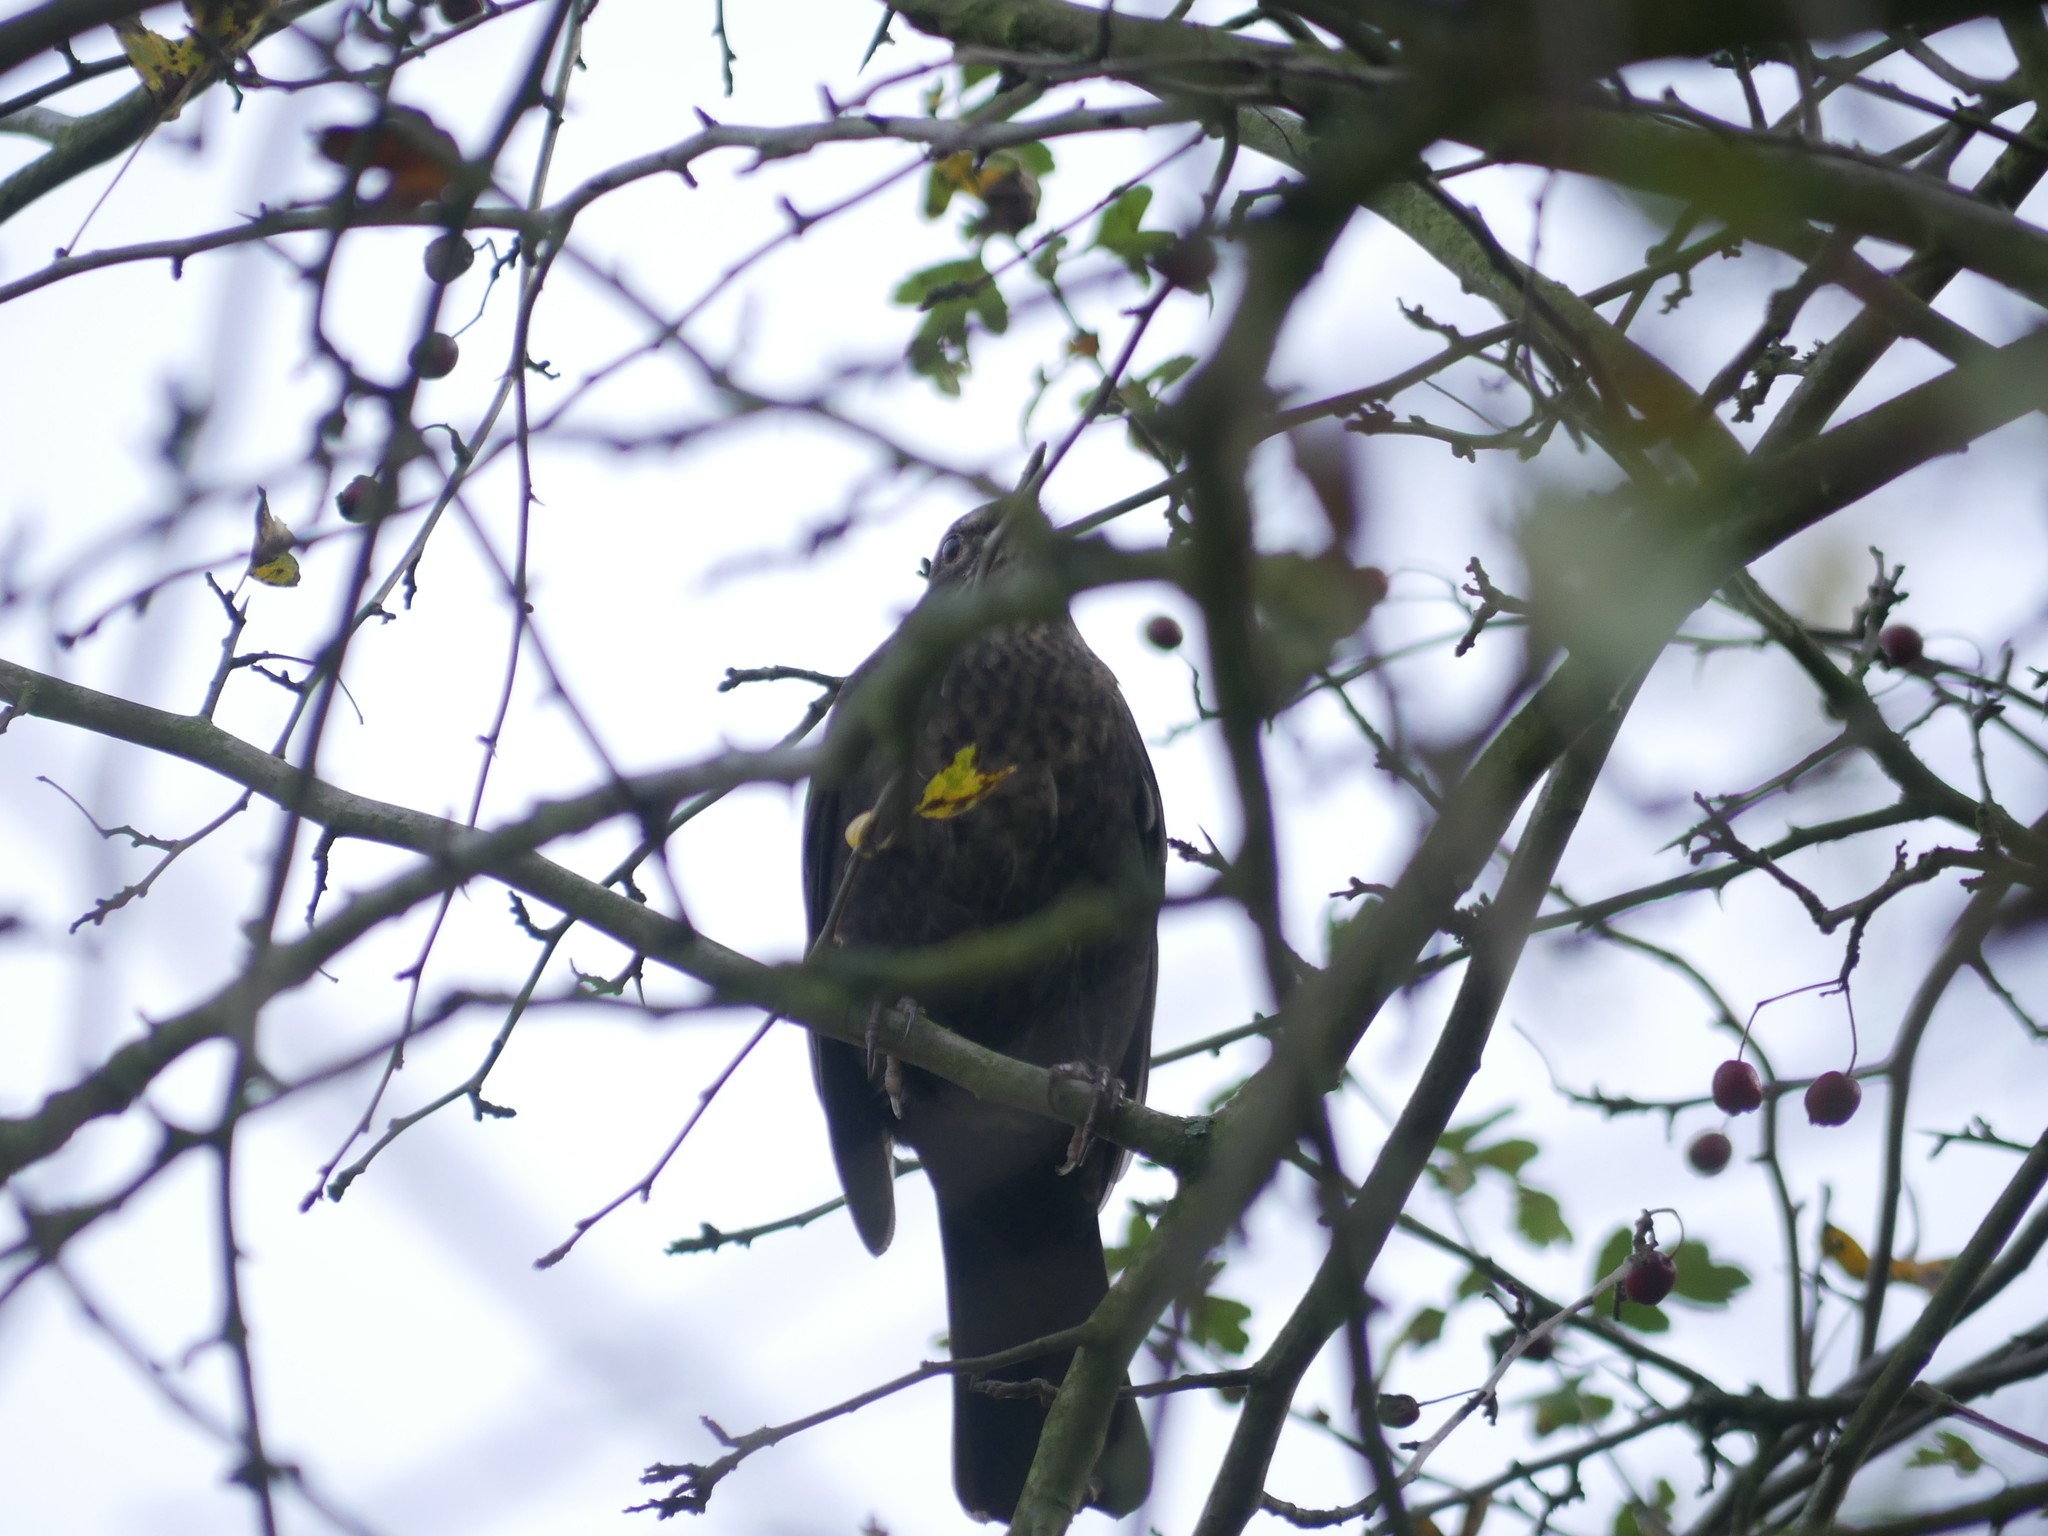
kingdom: Animalia
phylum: Chordata
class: Aves
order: Passeriformes
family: Turdidae
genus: Turdus
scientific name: Turdus merula
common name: Common blackbird
